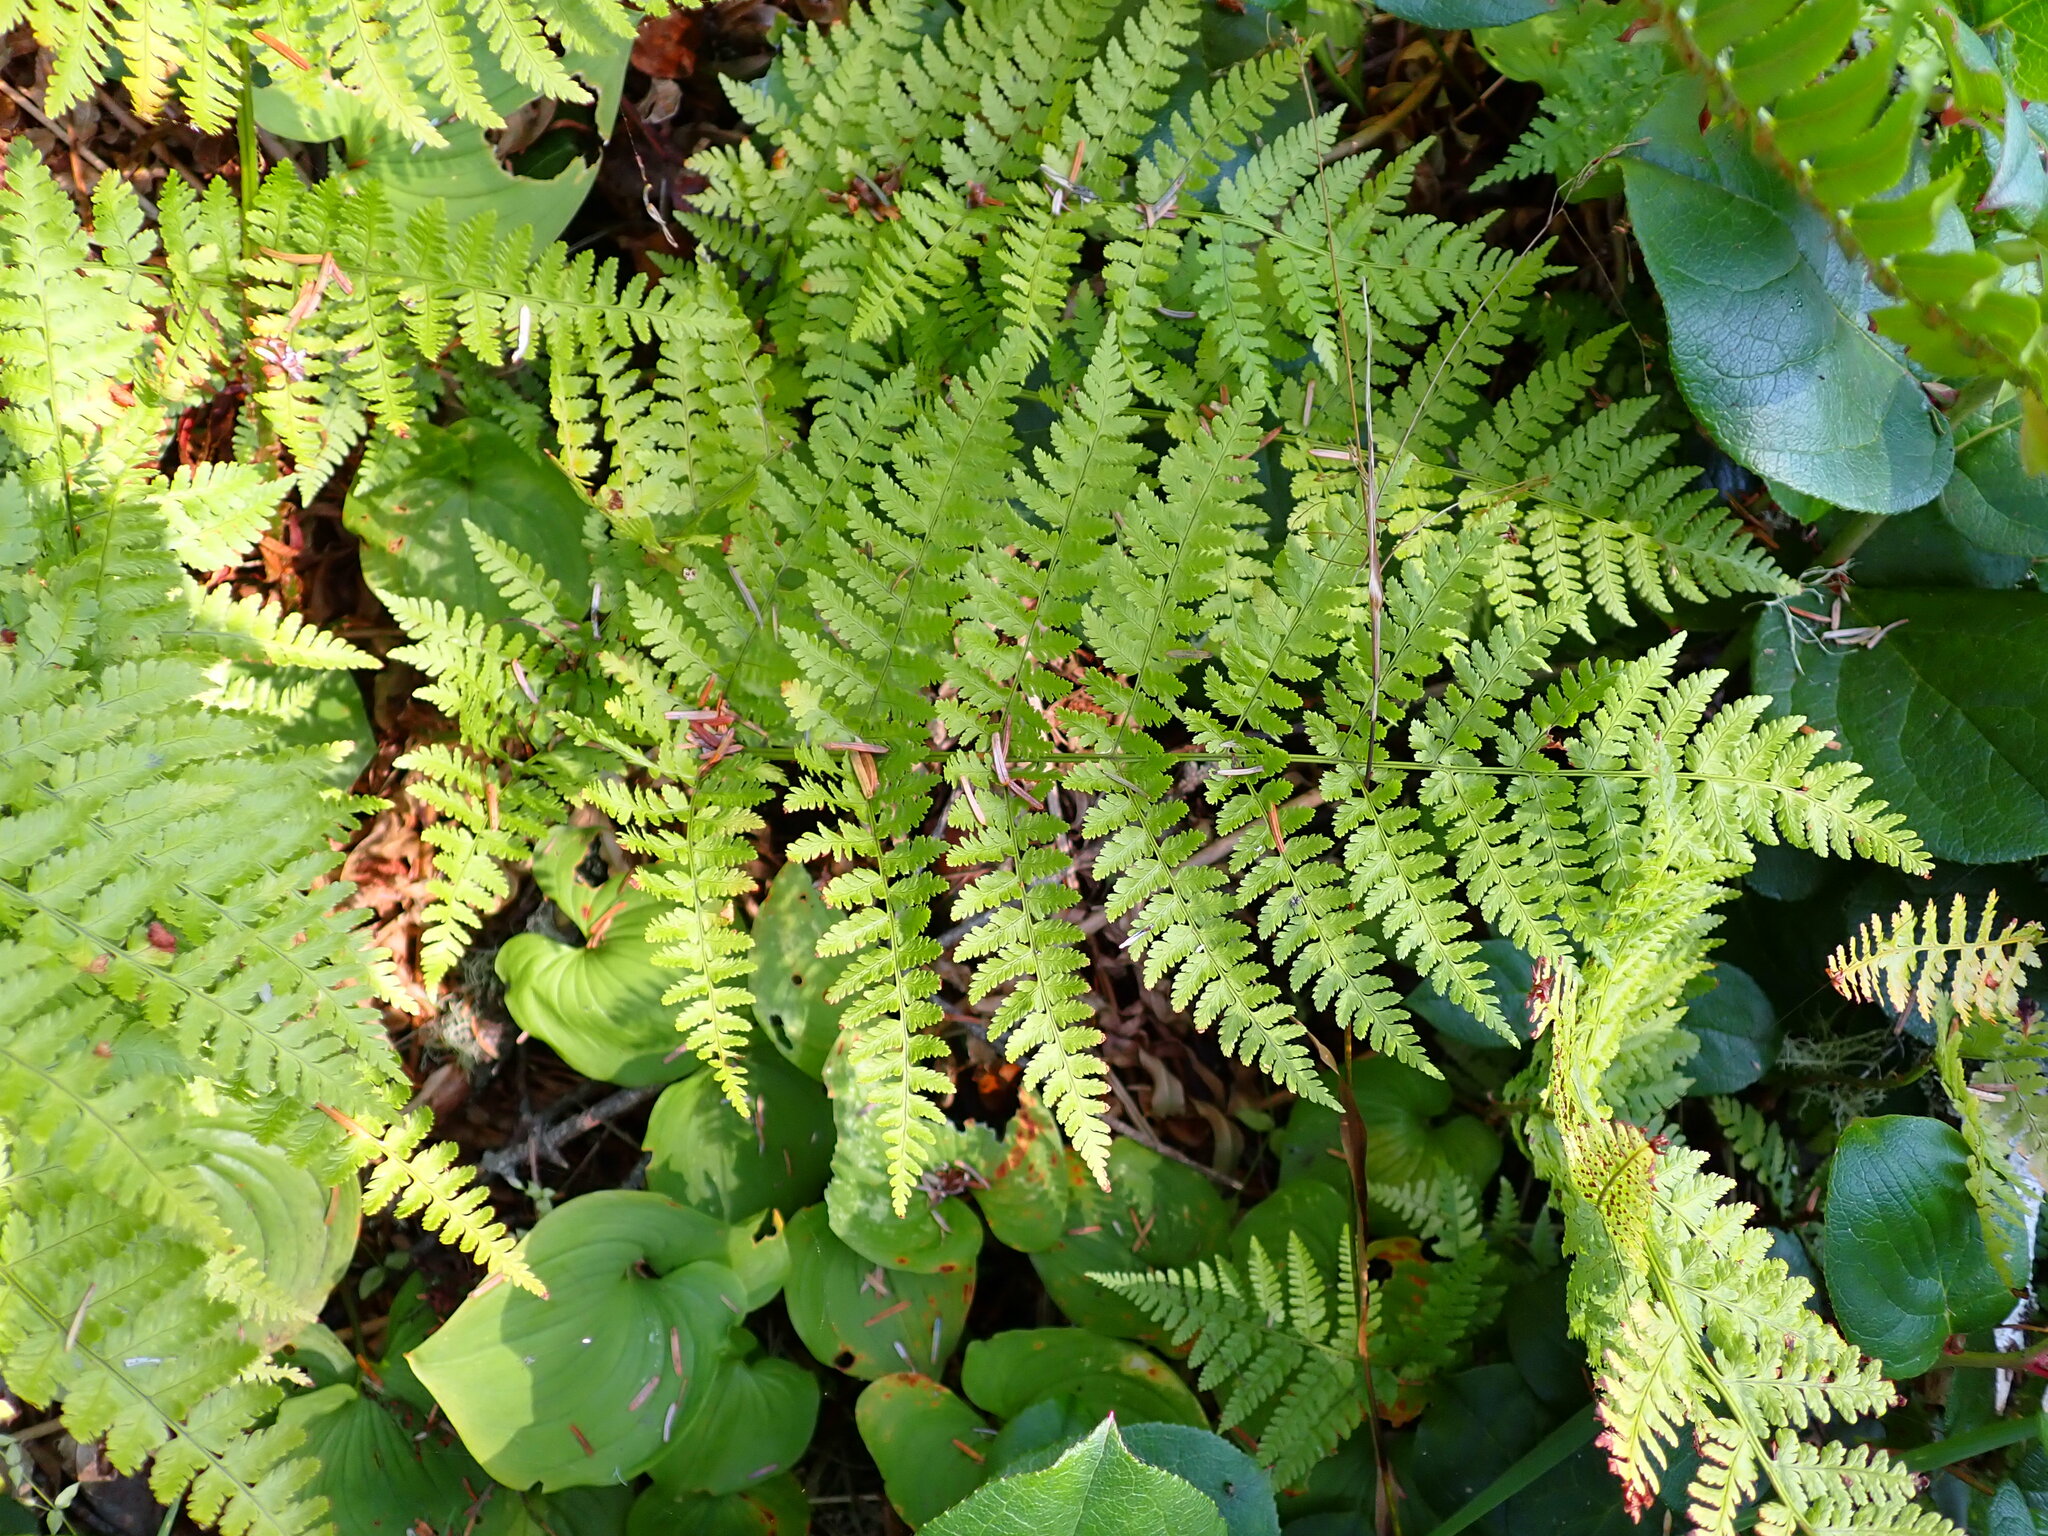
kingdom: Plantae
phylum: Tracheophyta
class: Polypodiopsida
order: Polypodiales
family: Dryopteridaceae
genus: Dryopteris
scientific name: Dryopteris expansa
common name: Northern buckler fern
